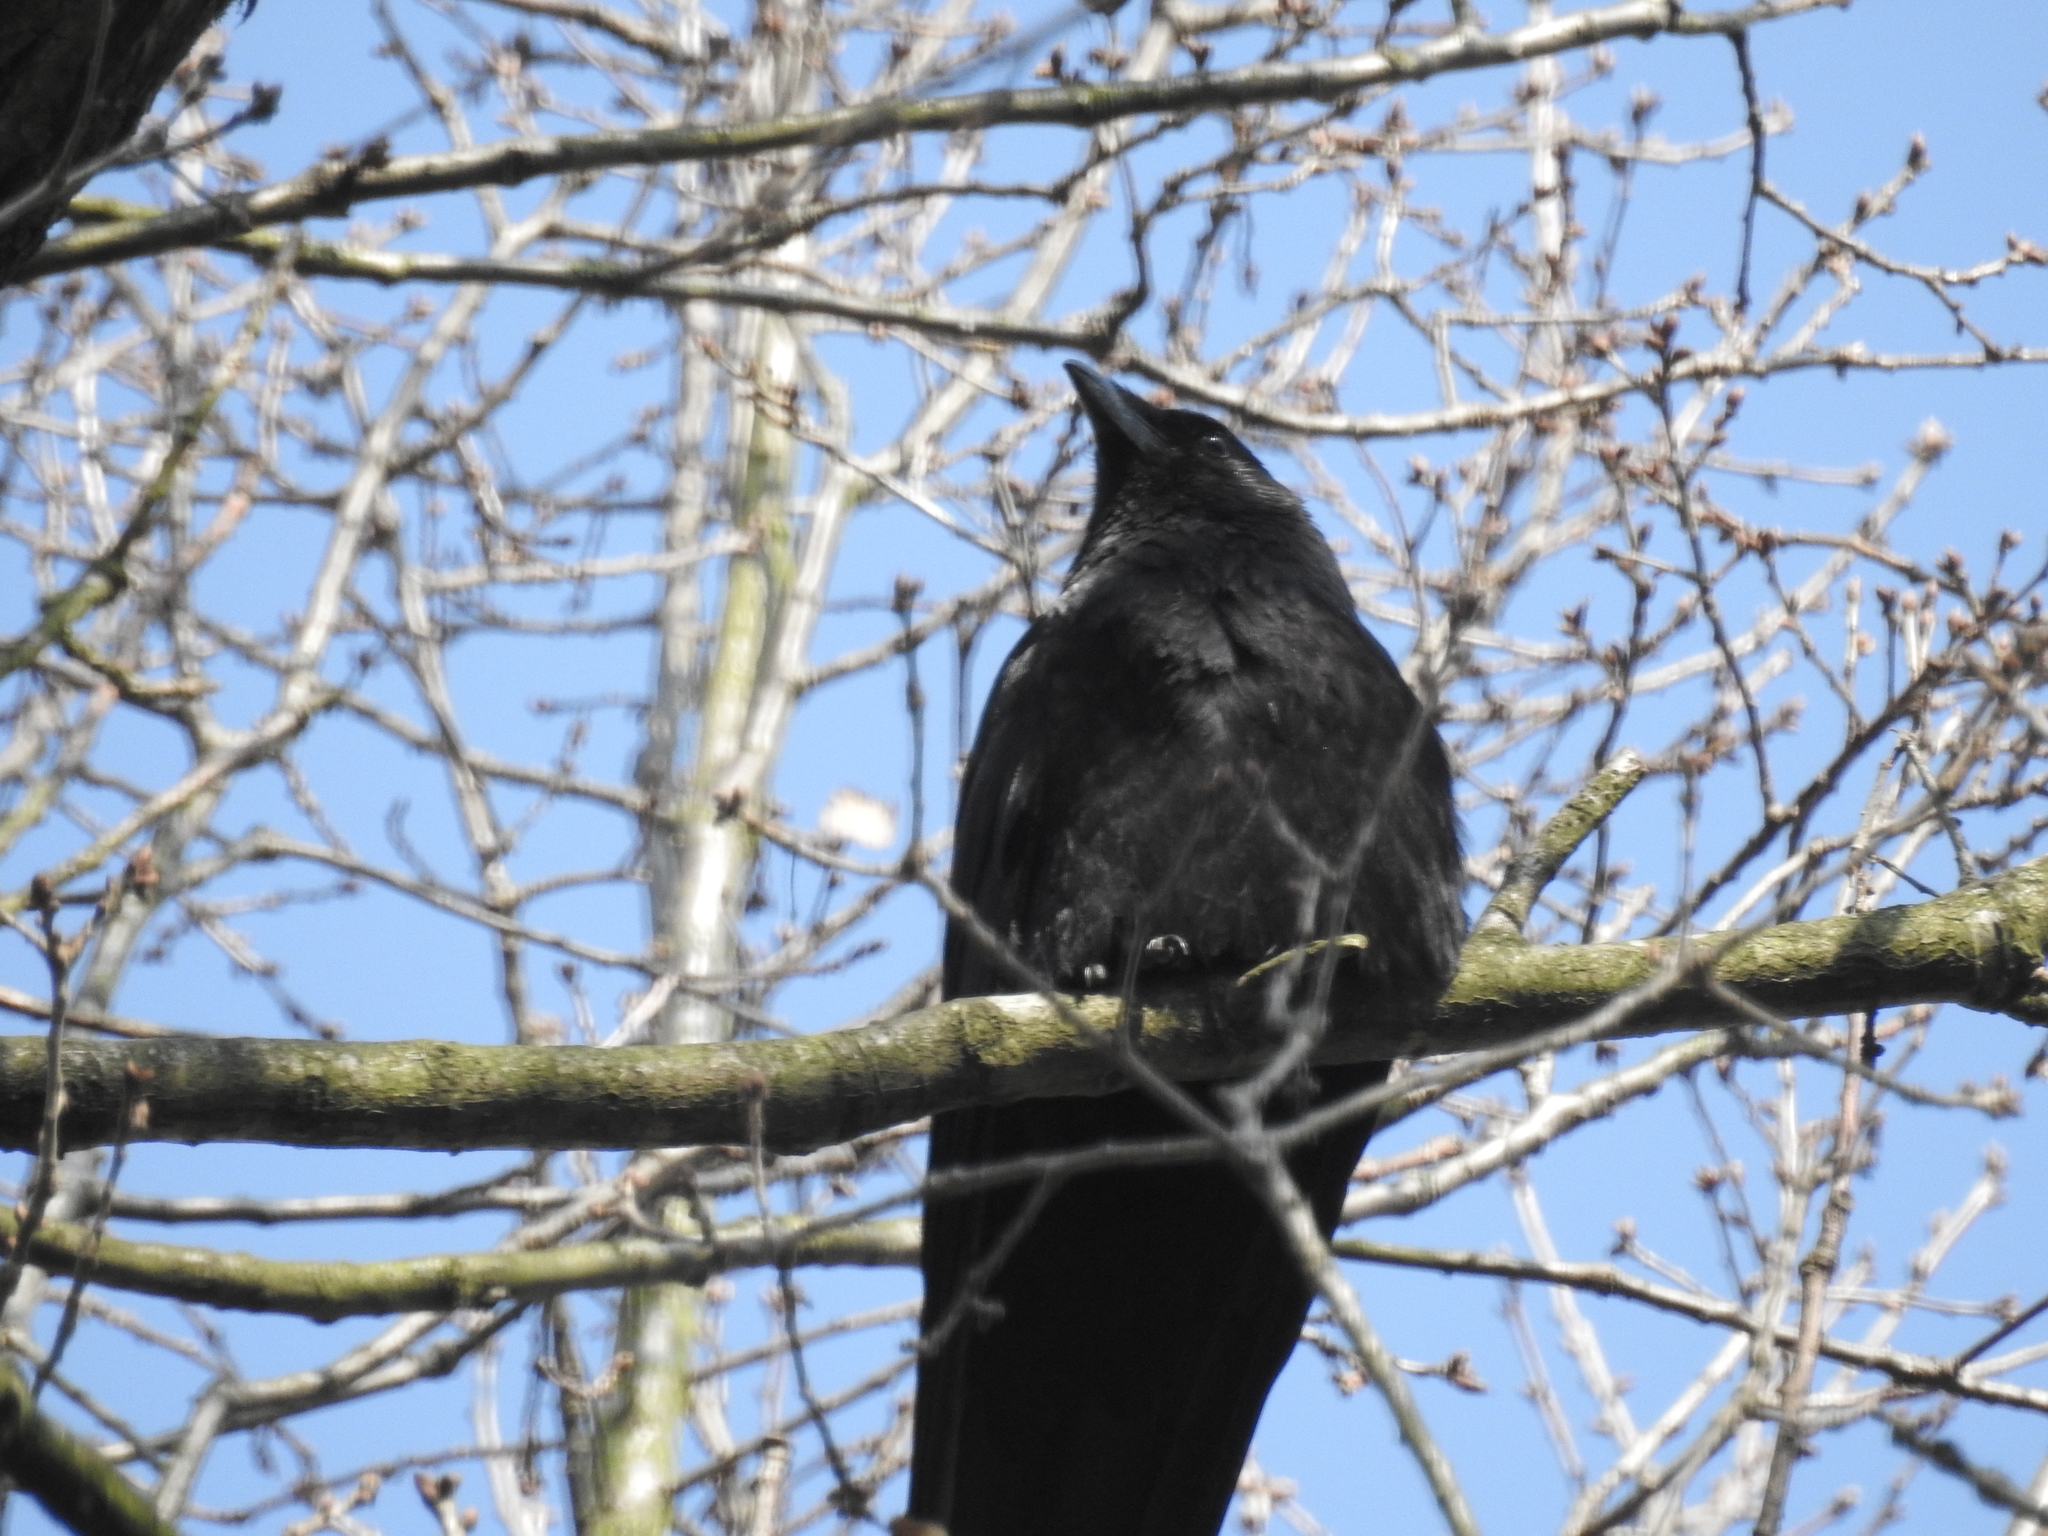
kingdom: Animalia
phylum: Chordata
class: Aves
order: Passeriformes
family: Corvidae
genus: Corvus
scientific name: Corvus corone
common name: Carrion crow
